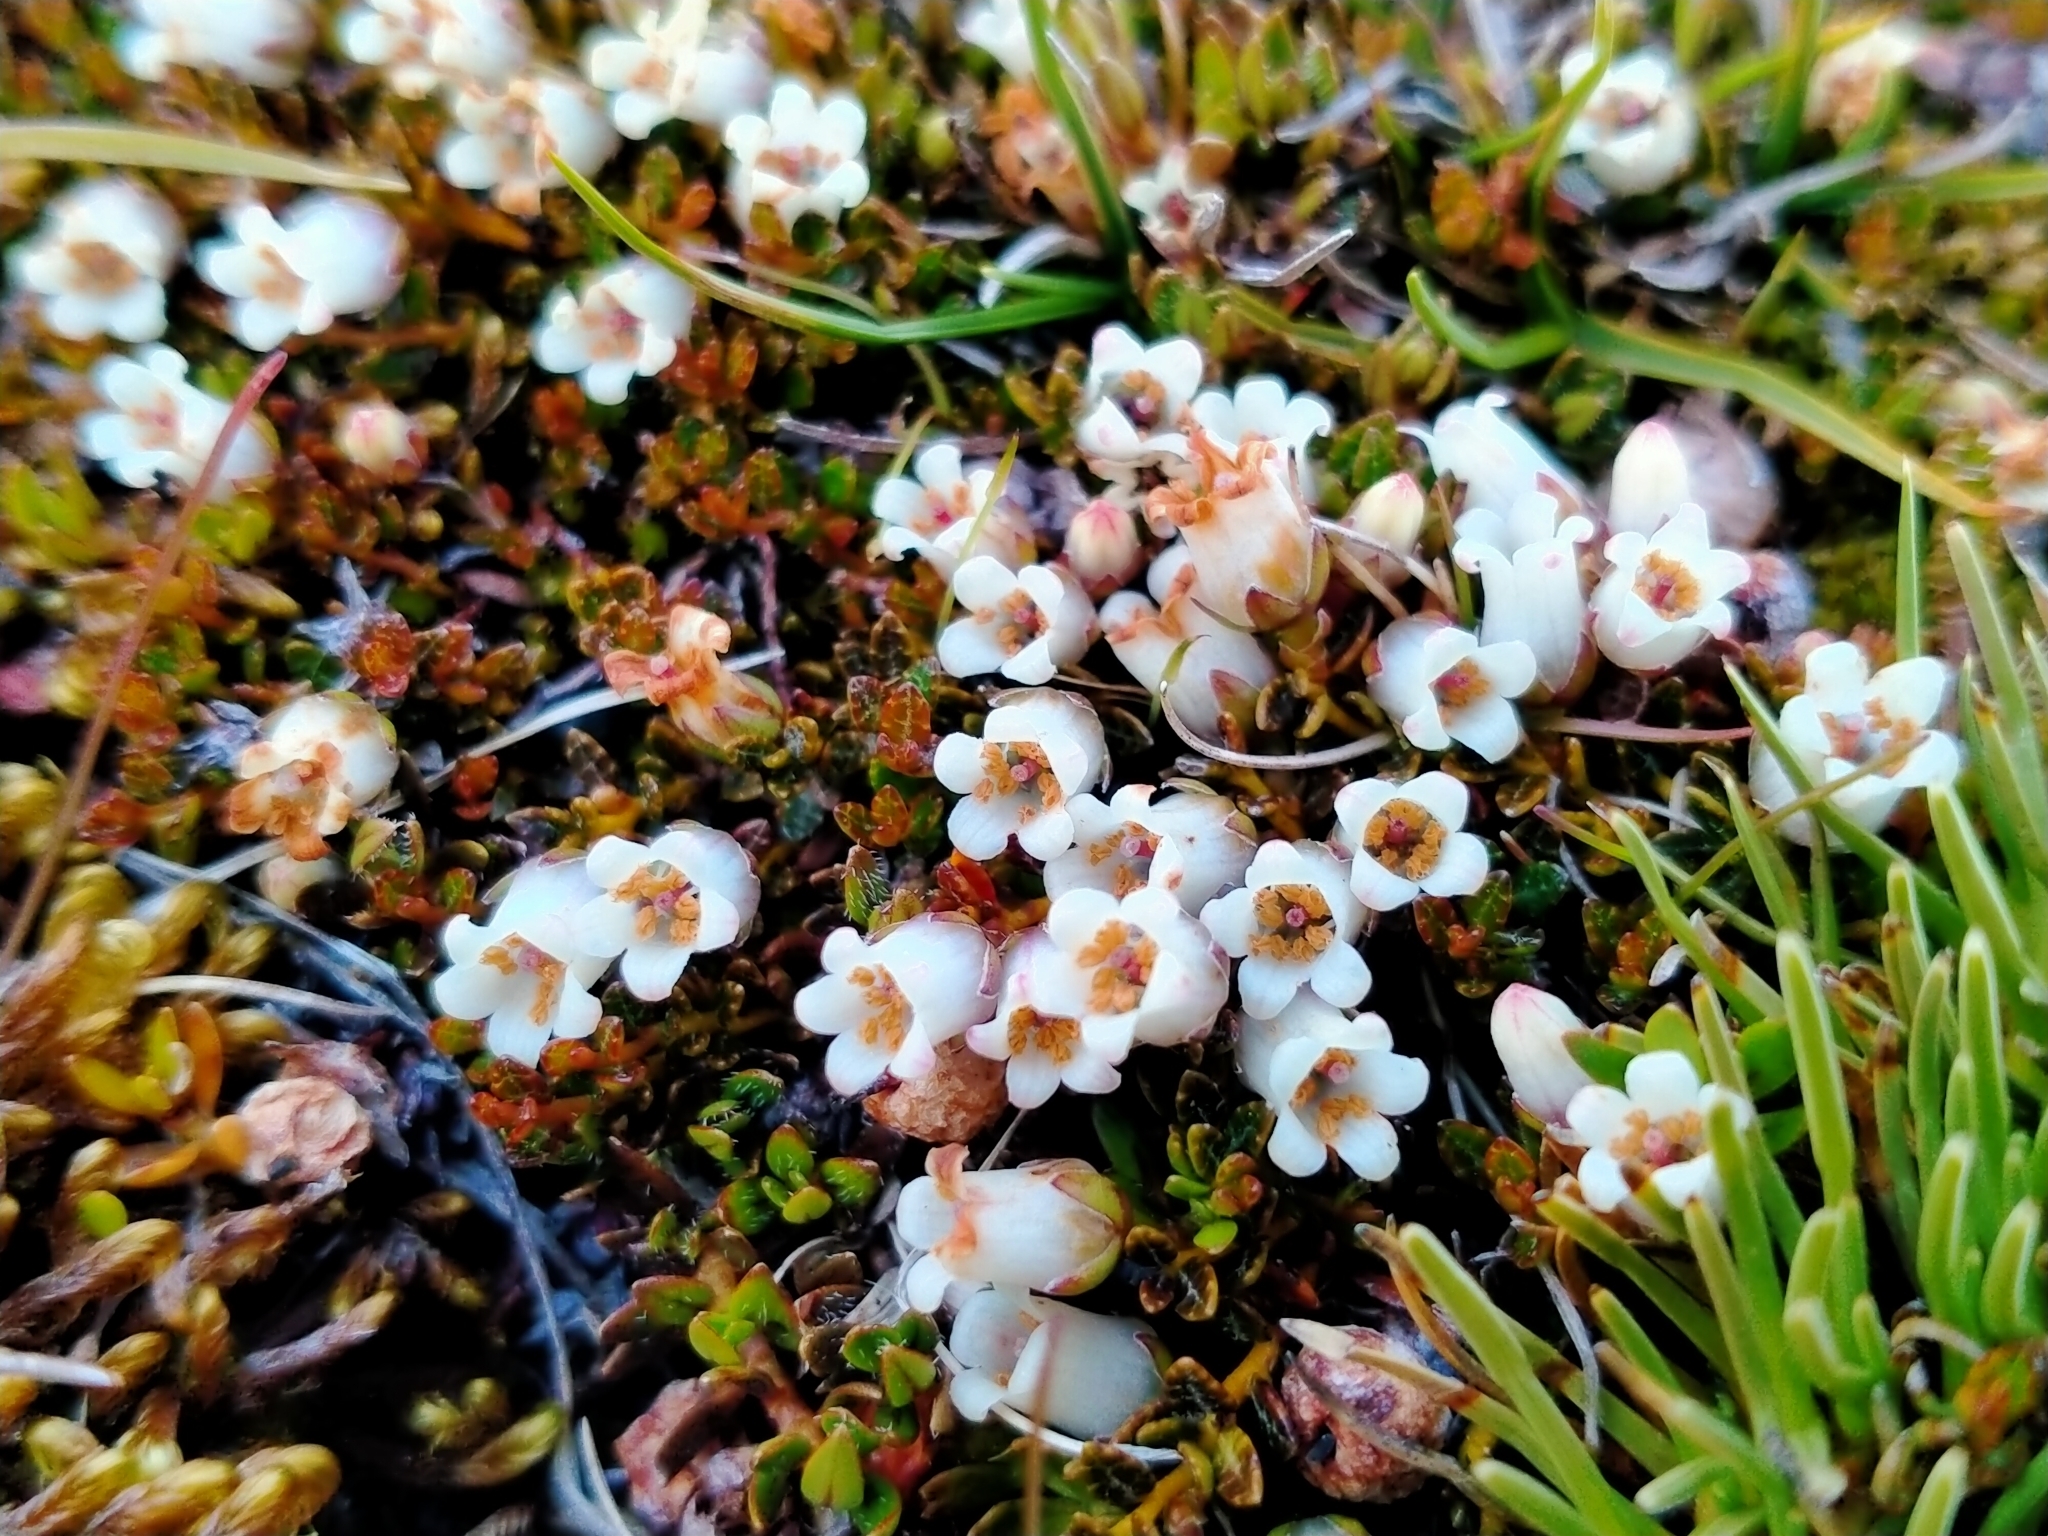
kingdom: Plantae
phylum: Tracheophyta
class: Magnoliopsida
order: Ericales
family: Ericaceae
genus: Gaultheria
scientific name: Gaultheria parvula
